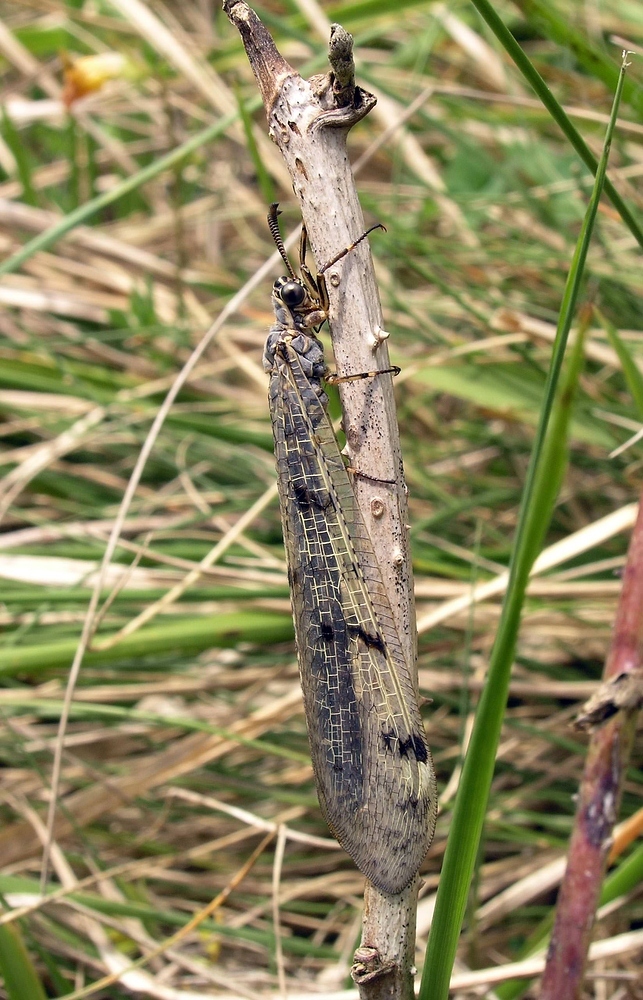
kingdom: Animalia
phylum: Arthropoda
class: Insecta
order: Neuroptera
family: Myrmeleontidae
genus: Euroleon
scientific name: Euroleon nostras
